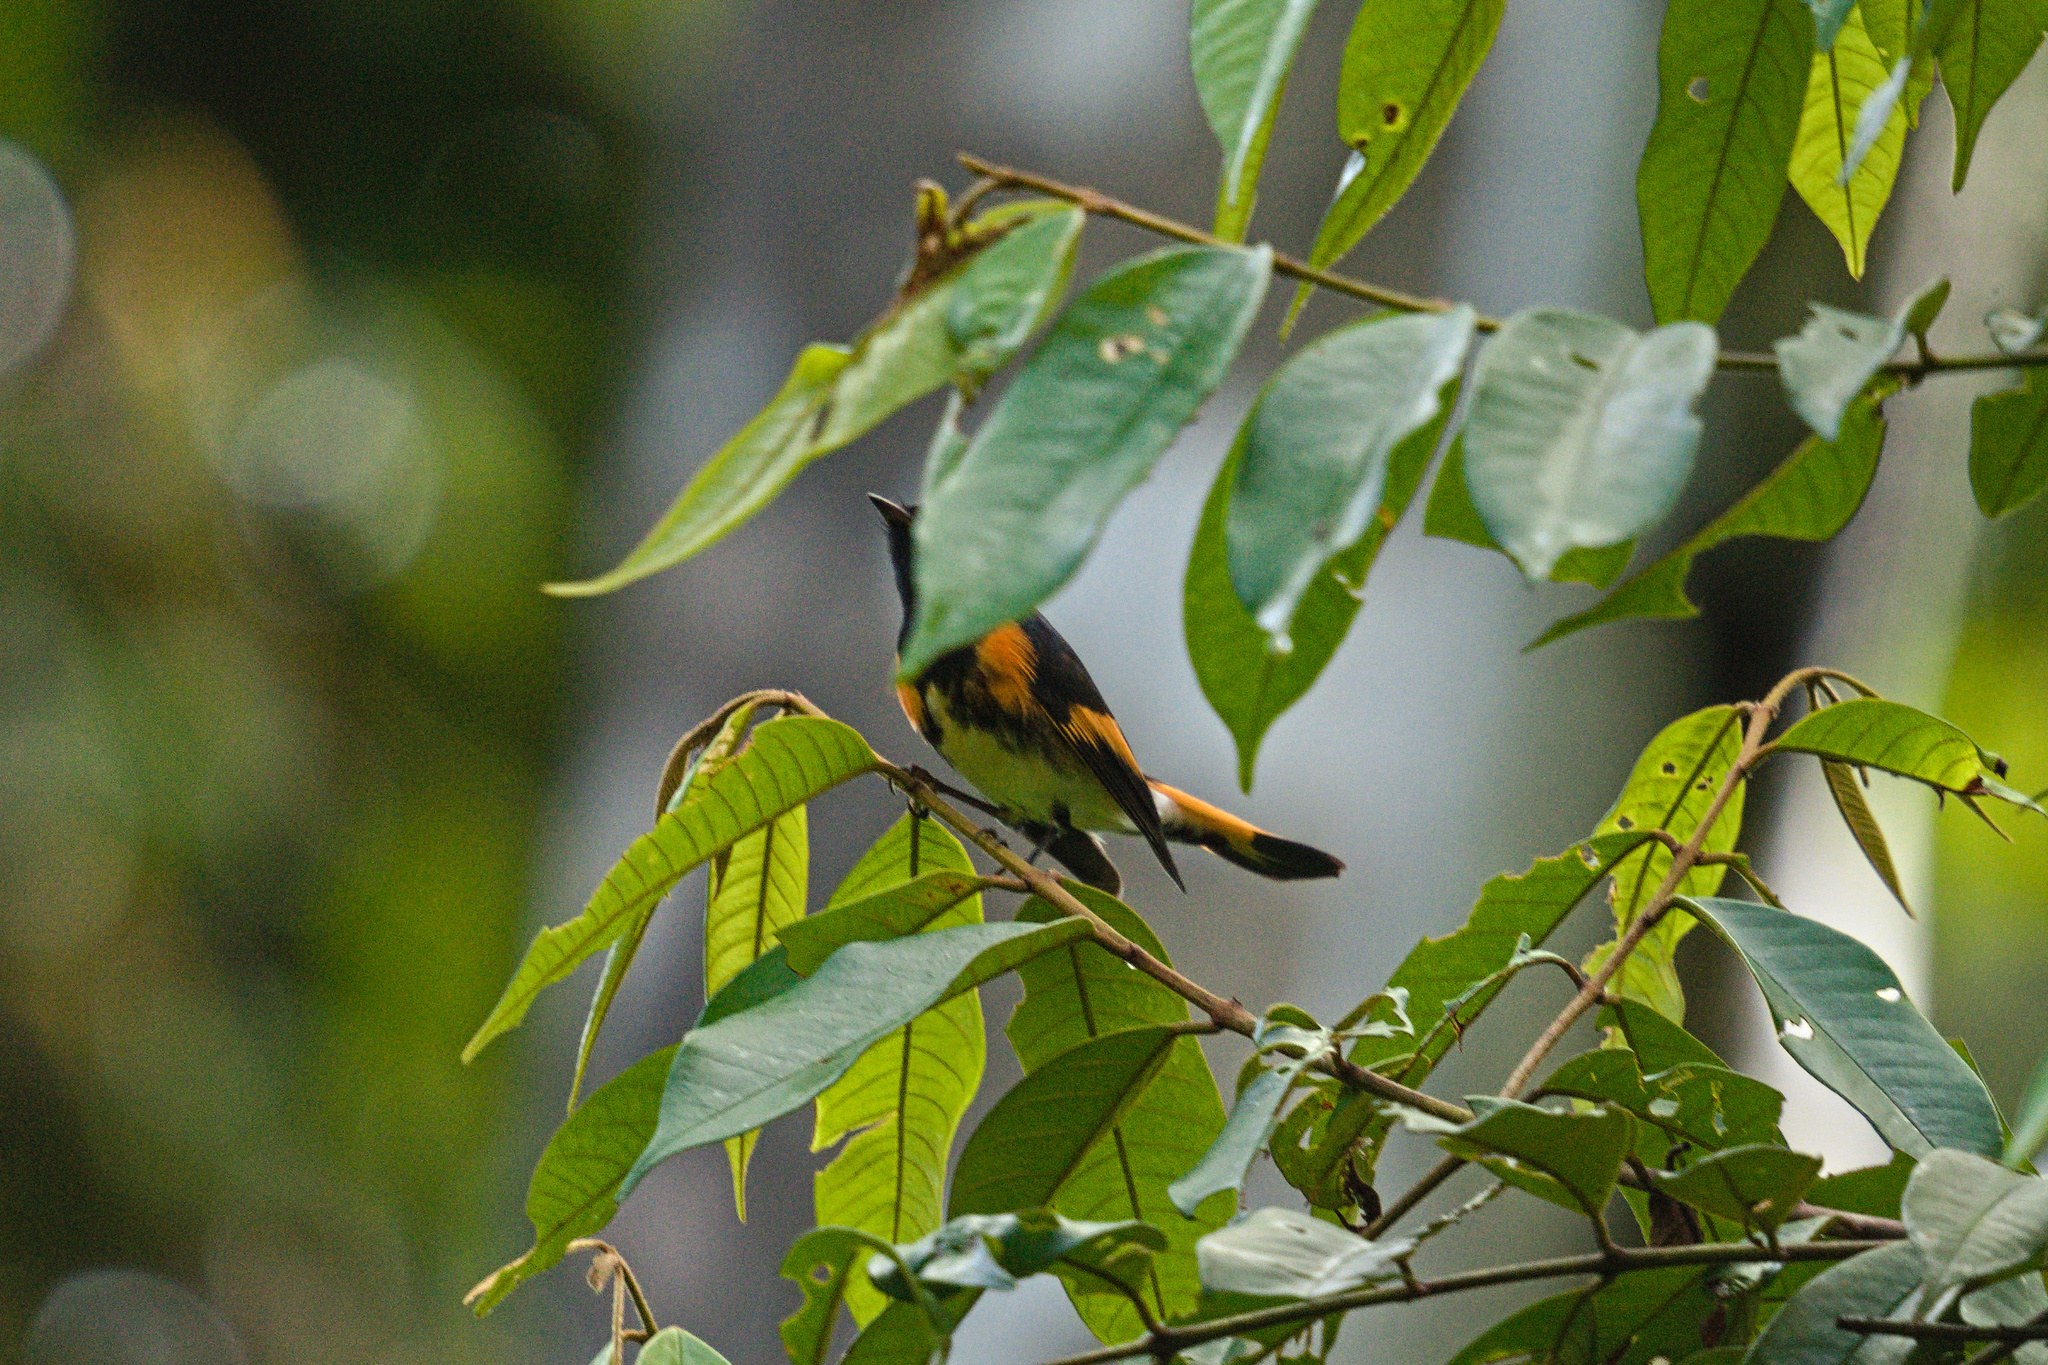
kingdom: Animalia
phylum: Chordata
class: Aves
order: Passeriformes
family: Parulidae
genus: Setophaga
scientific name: Setophaga ruticilla
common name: American redstart
